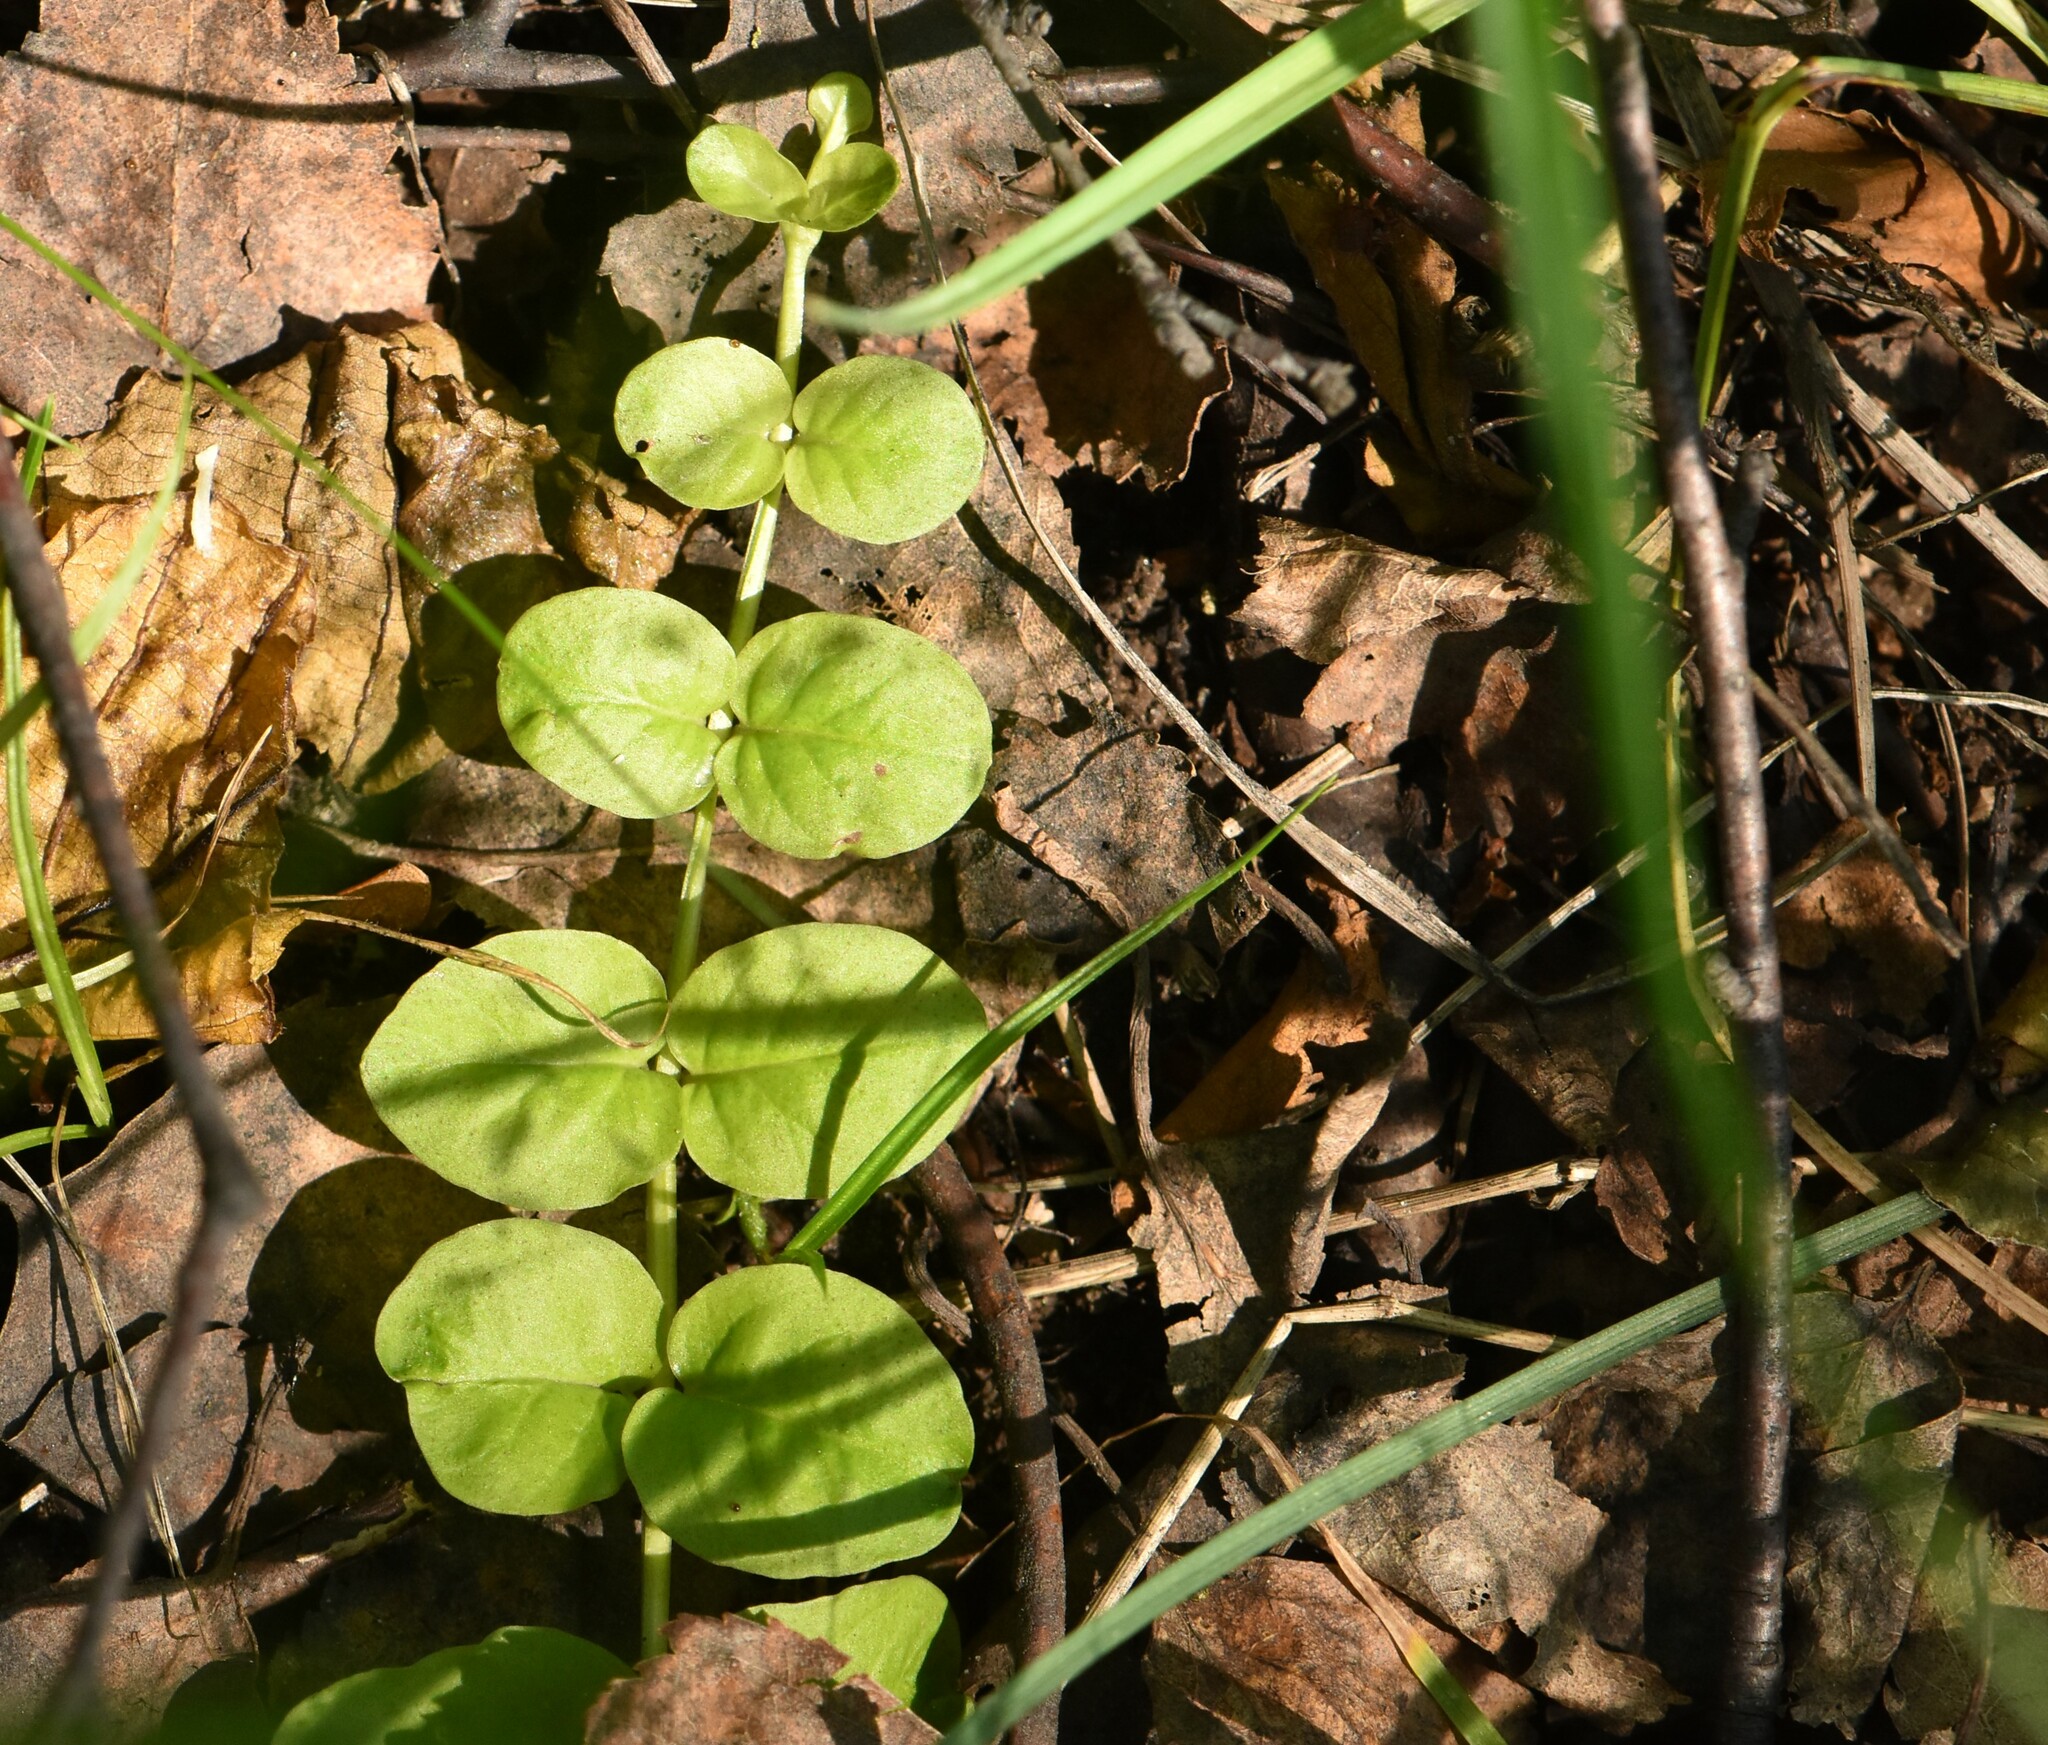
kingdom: Plantae
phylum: Tracheophyta
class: Magnoliopsida
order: Ericales
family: Primulaceae
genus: Lysimachia
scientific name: Lysimachia nummularia
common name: Moneywort
